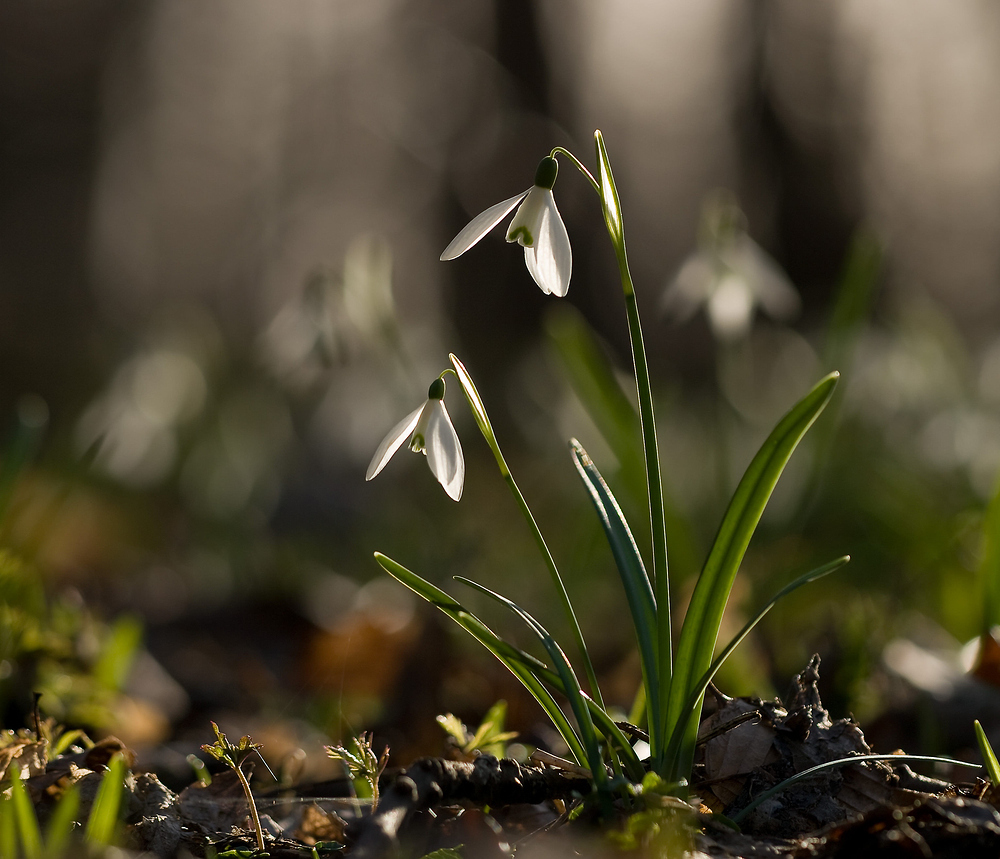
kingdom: Plantae
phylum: Tracheophyta
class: Liliopsida
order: Asparagales
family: Amaryllidaceae
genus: Galanthus
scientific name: Galanthus nivalis
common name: Snowdrop
